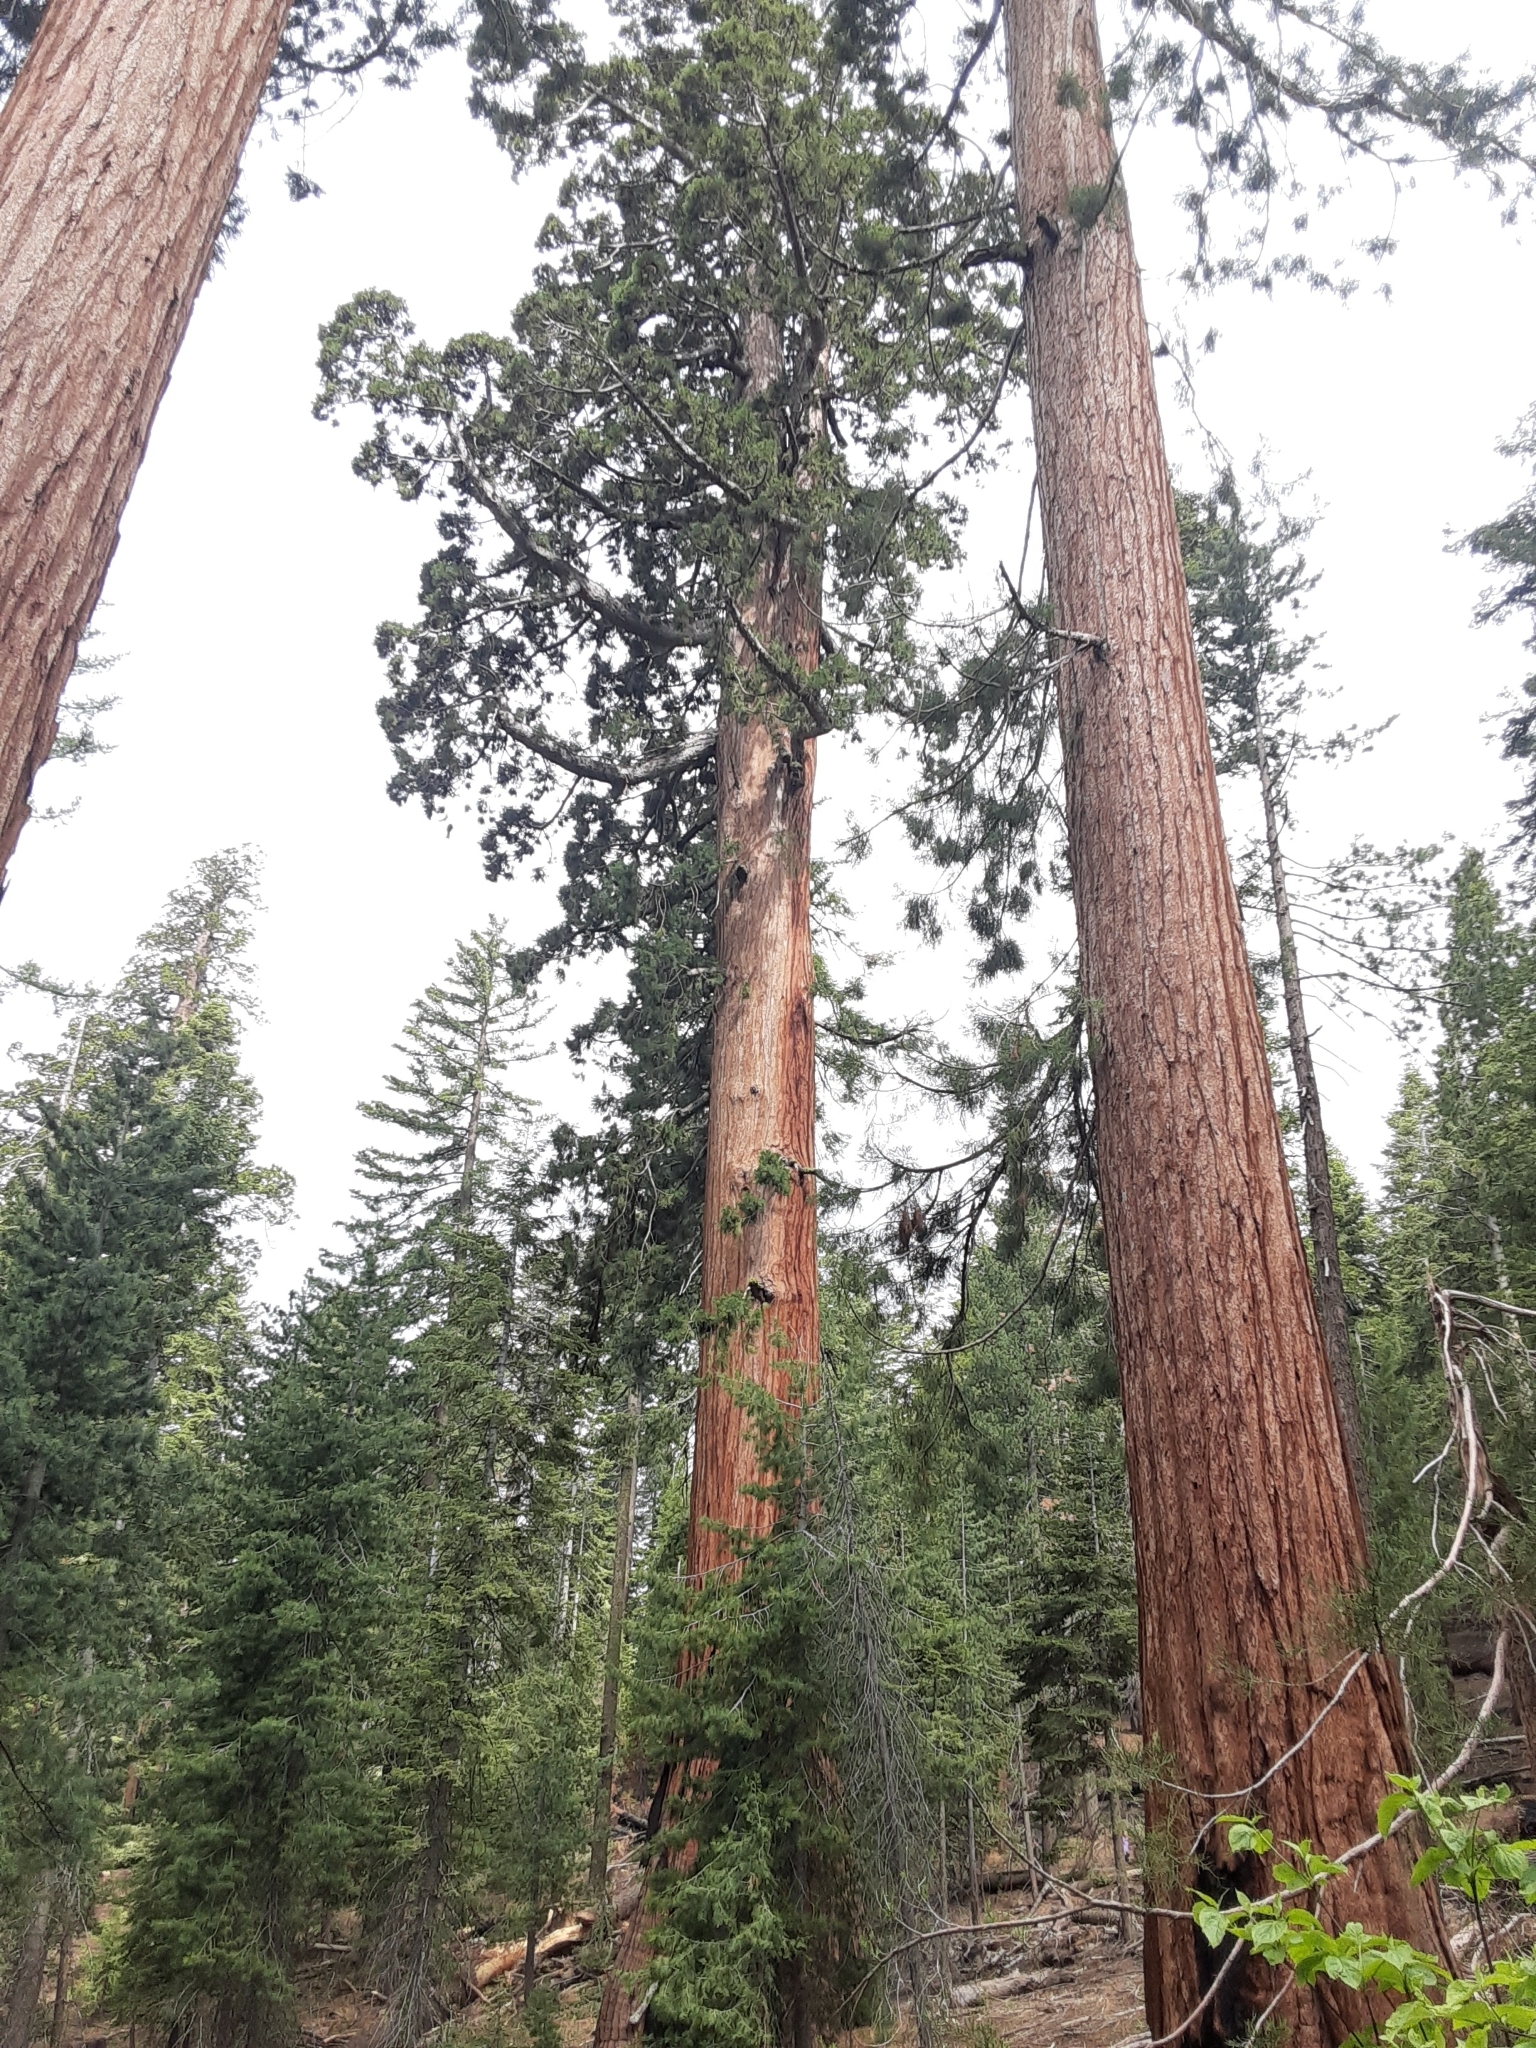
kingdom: Plantae
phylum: Tracheophyta
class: Pinopsida
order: Pinales
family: Cupressaceae
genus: Sequoiadendron
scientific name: Sequoiadendron giganteum
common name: Wellingtonia
